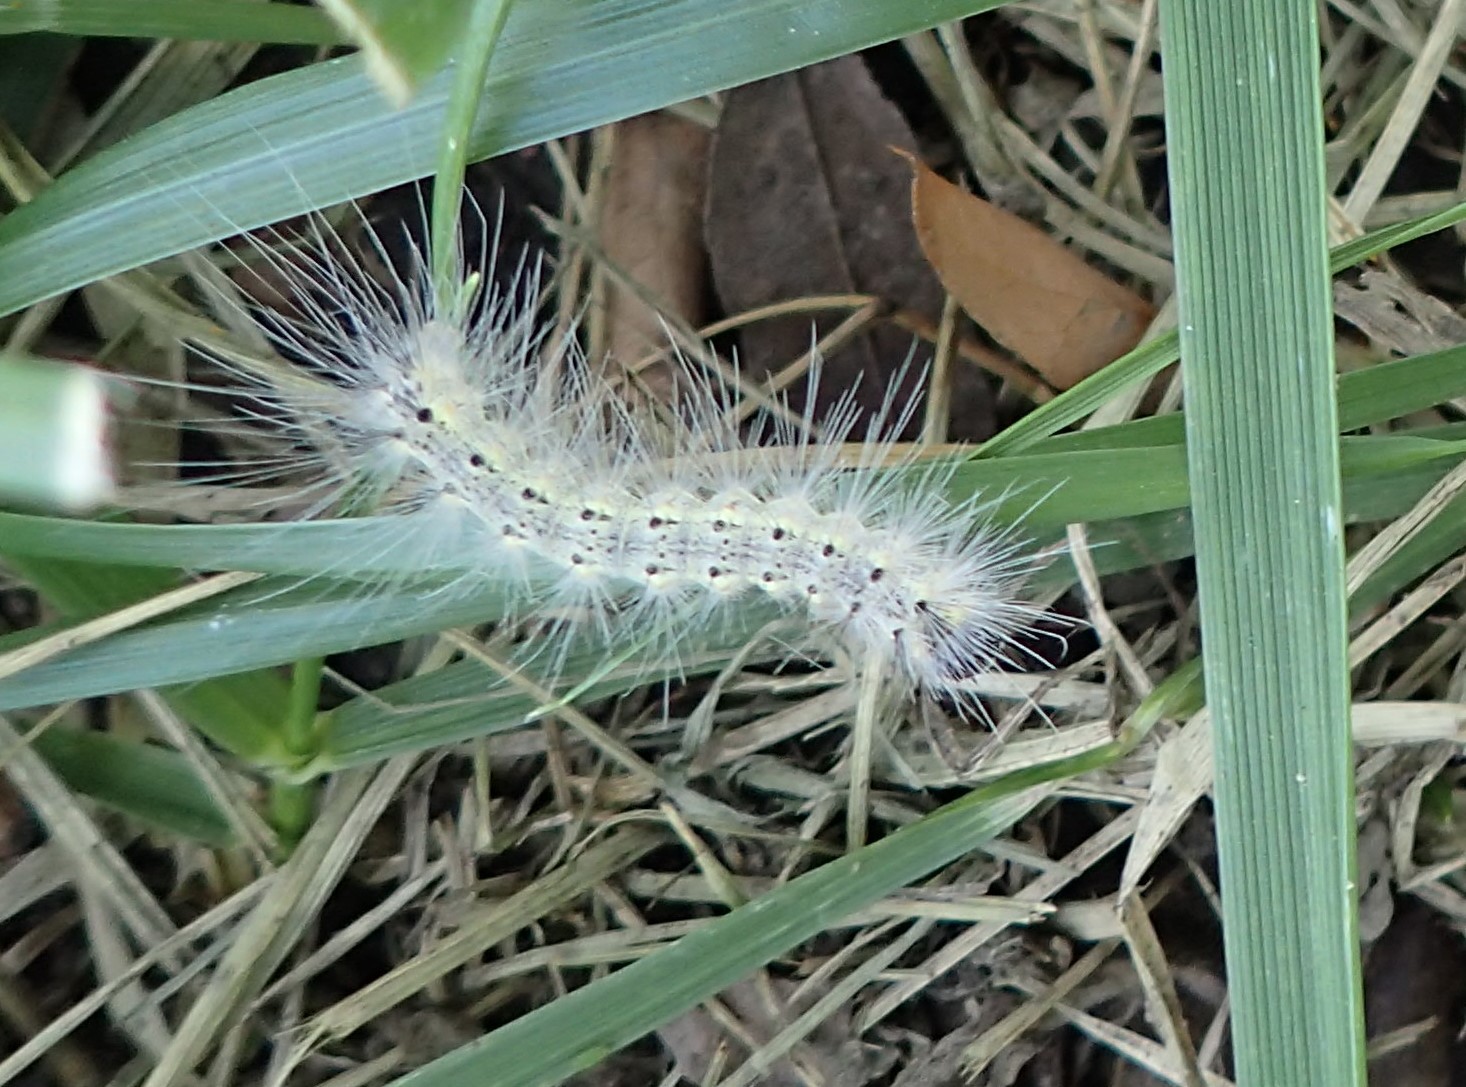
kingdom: Animalia
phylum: Arthropoda
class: Insecta
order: Lepidoptera
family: Erebidae
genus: Hyphantria
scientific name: Hyphantria cunea
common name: American white moth
